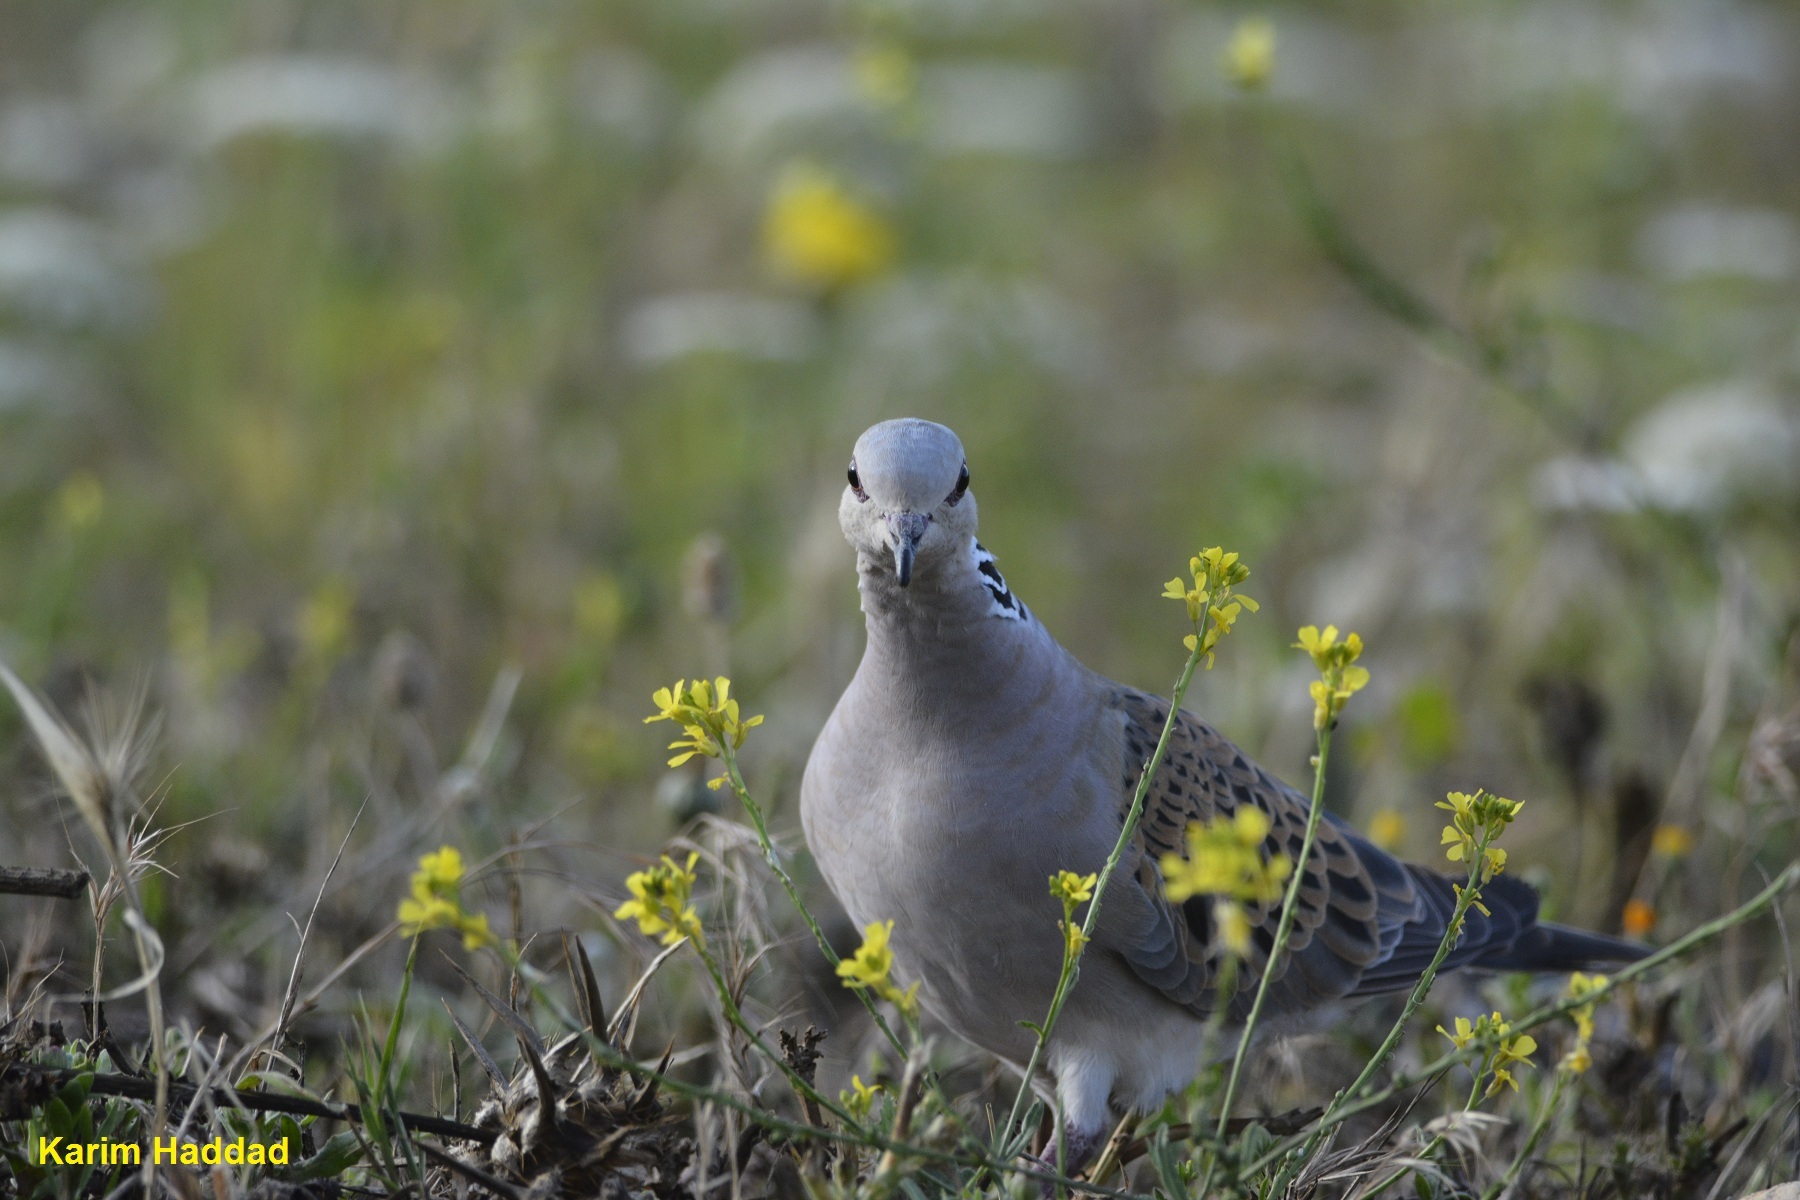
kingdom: Animalia
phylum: Chordata
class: Aves
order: Columbiformes
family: Columbidae
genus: Streptopelia
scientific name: Streptopelia turtur
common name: European turtle dove
